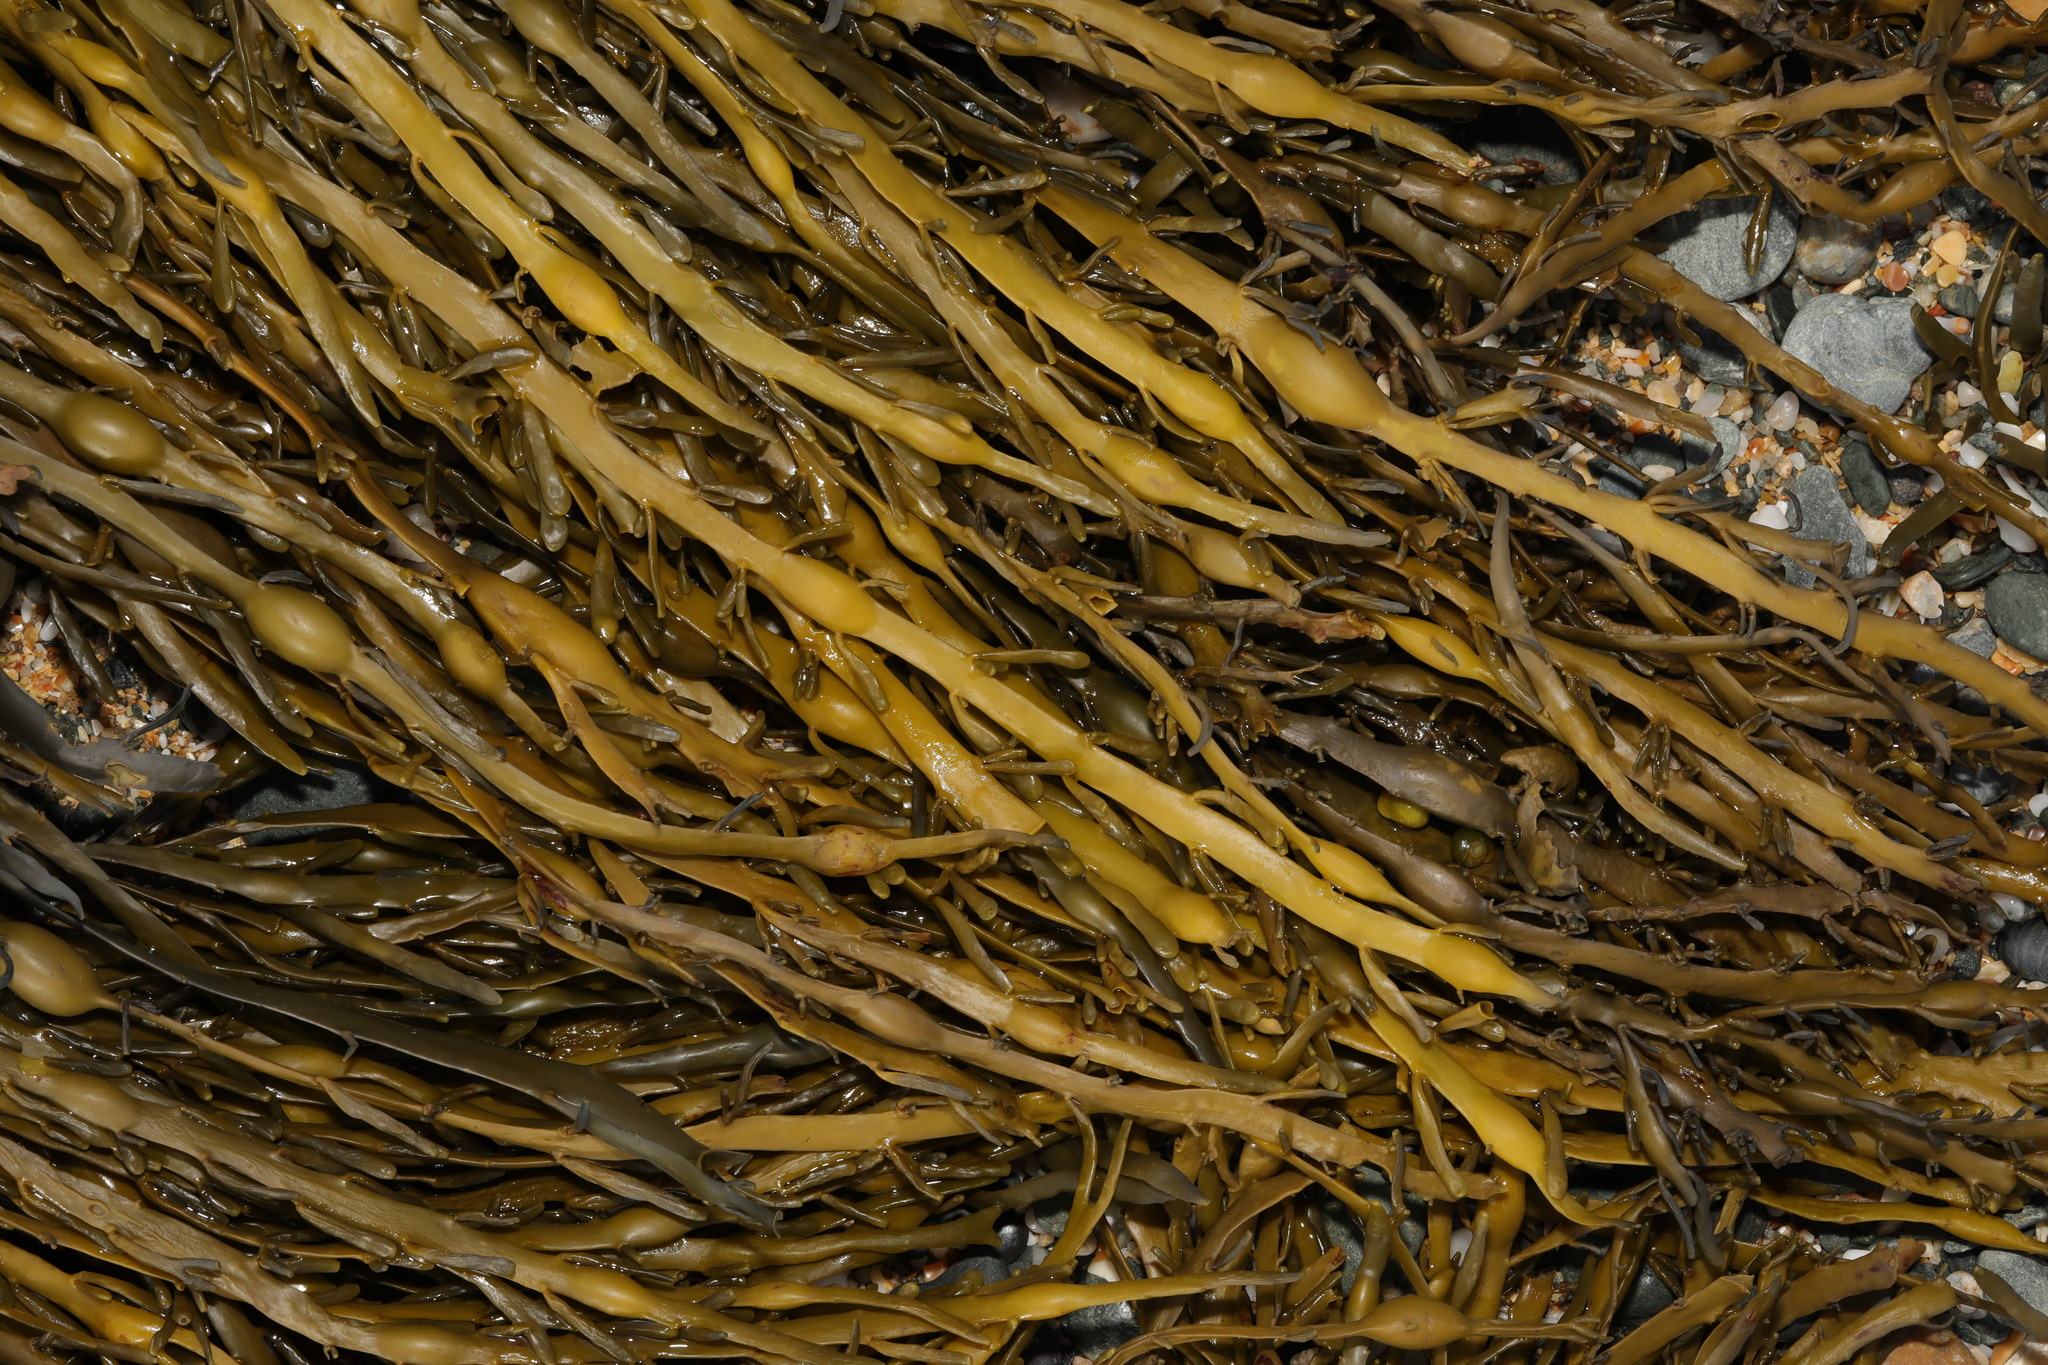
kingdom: Chromista
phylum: Ochrophyta
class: Phaeophyceae
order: Fucales
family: Fucaceae
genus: Ascophyllum
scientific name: Ascophyllum nodosum
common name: Knotted wrack
